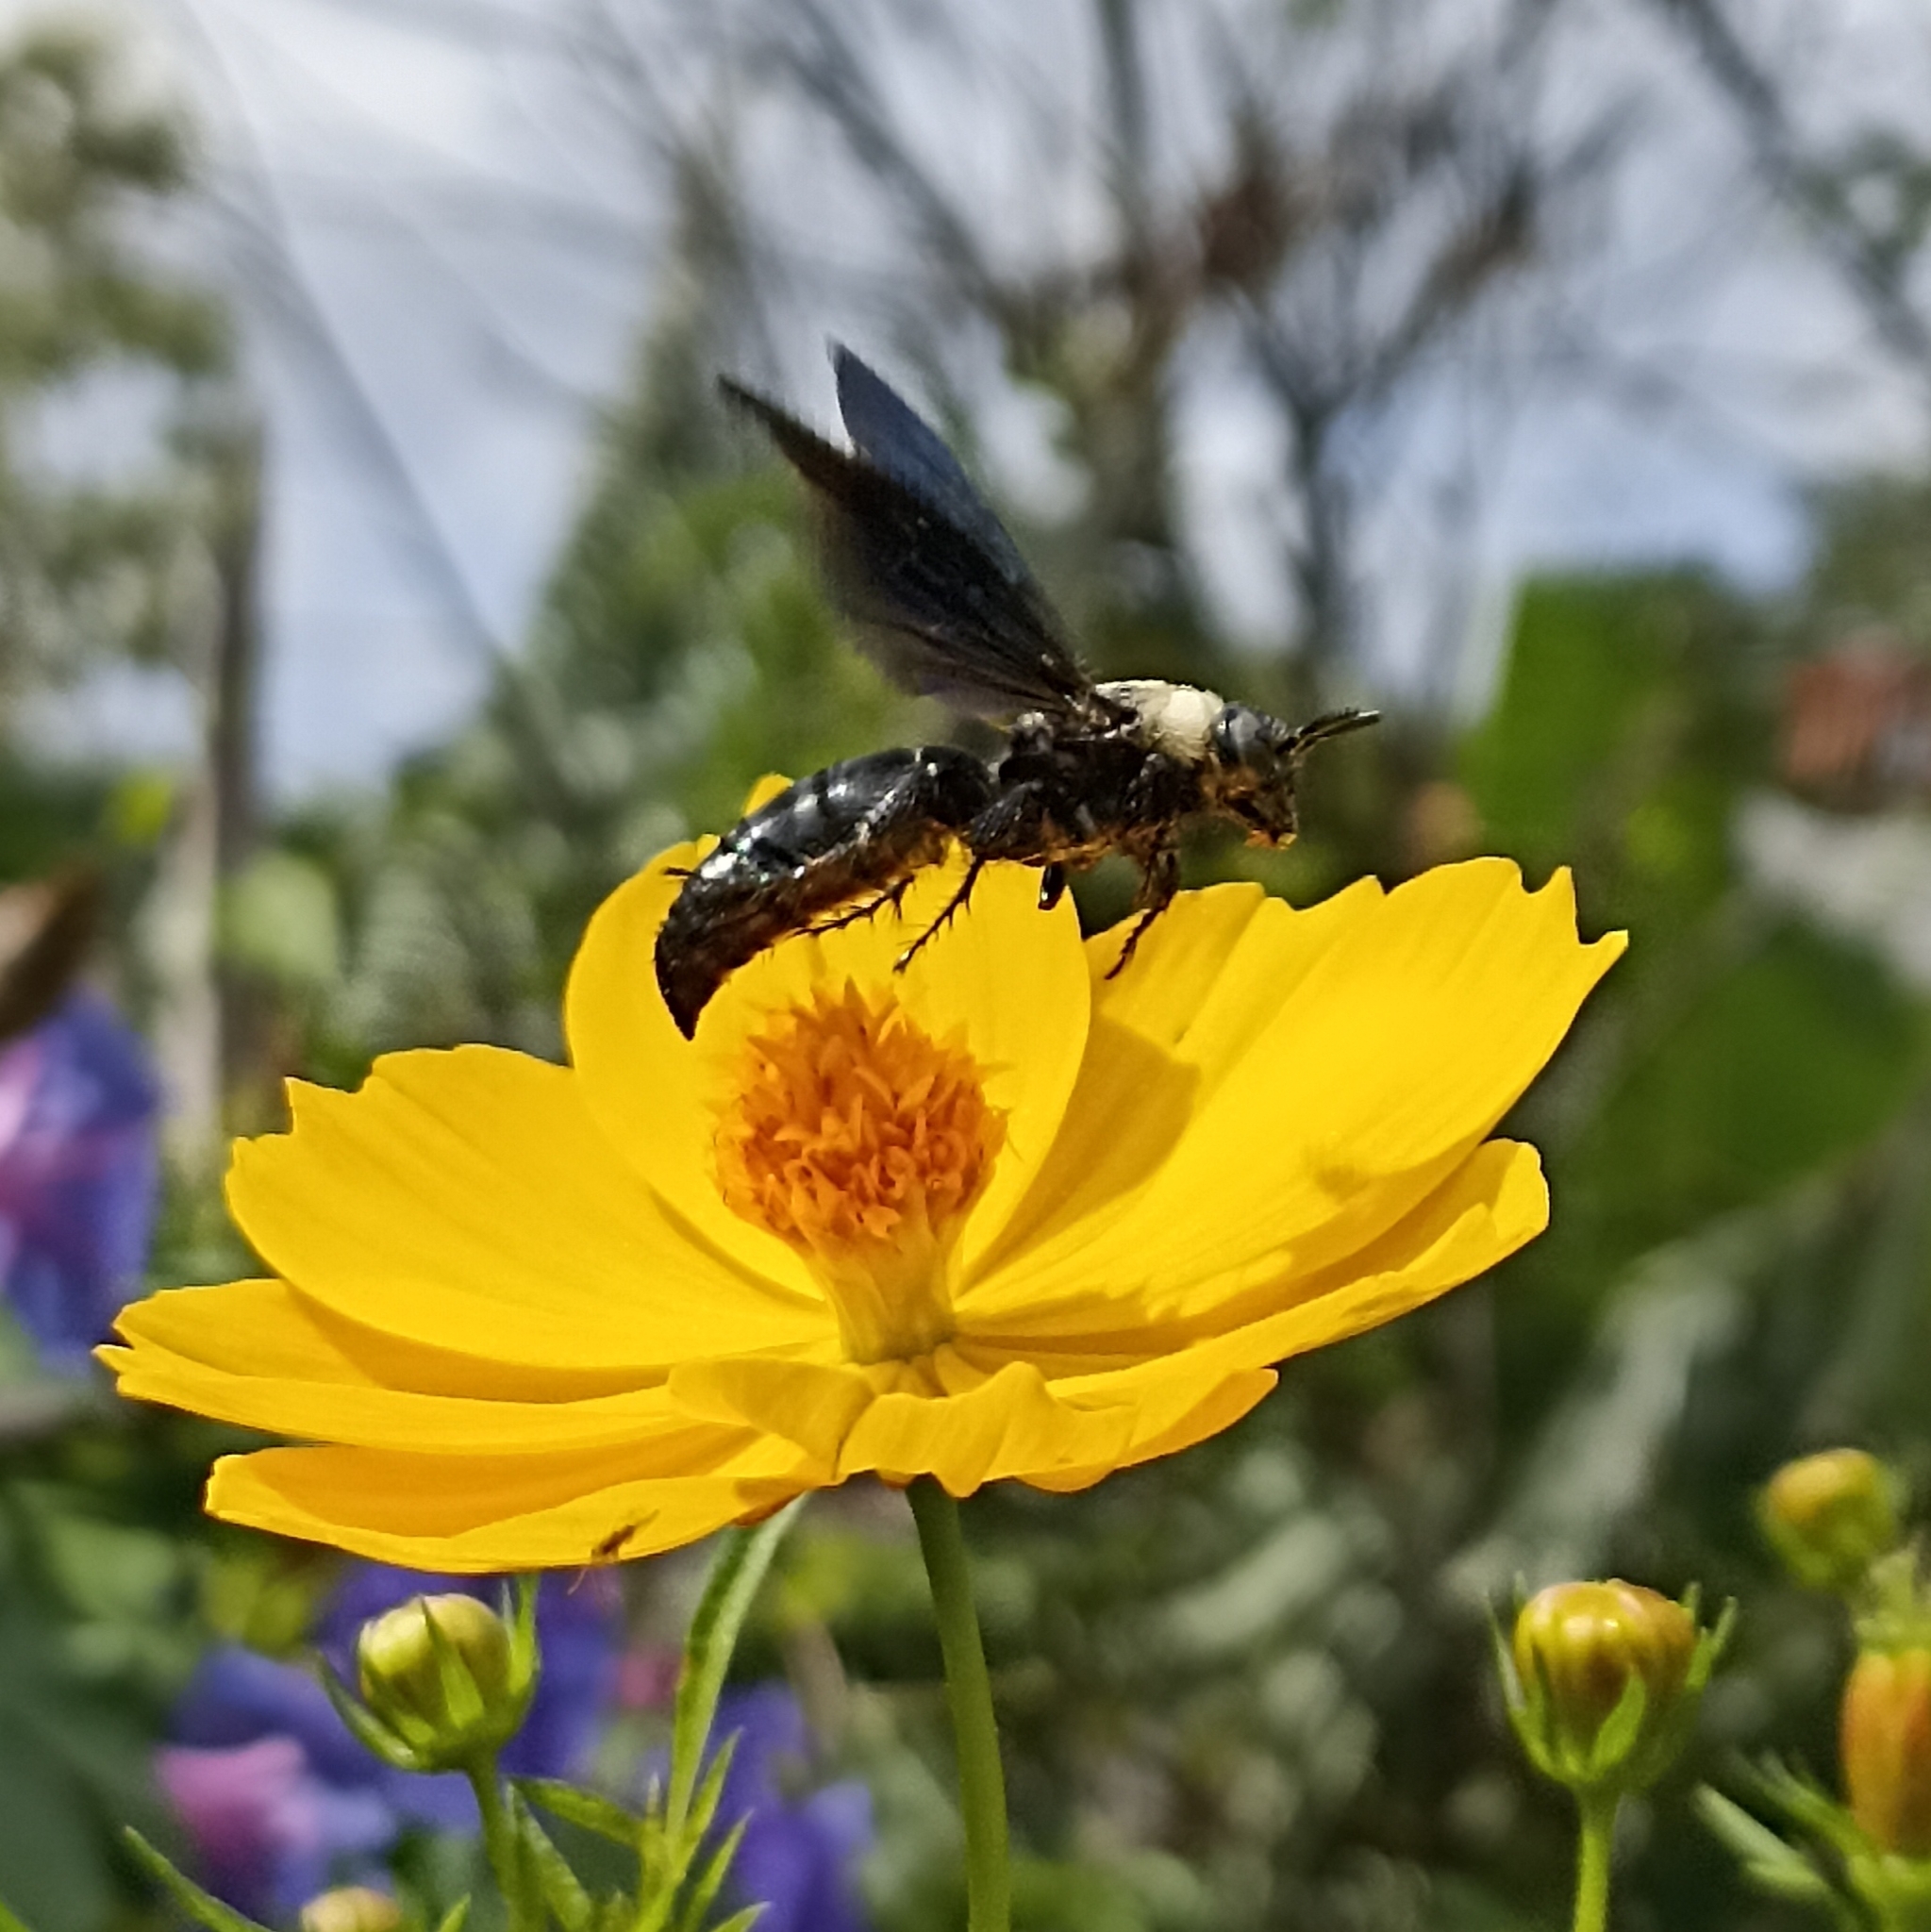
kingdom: Animalia
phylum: Arthropoda
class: Insecta
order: Hymenoptera
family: Scoliidae
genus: Campsomeriella
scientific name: Campsomeriella collaris
